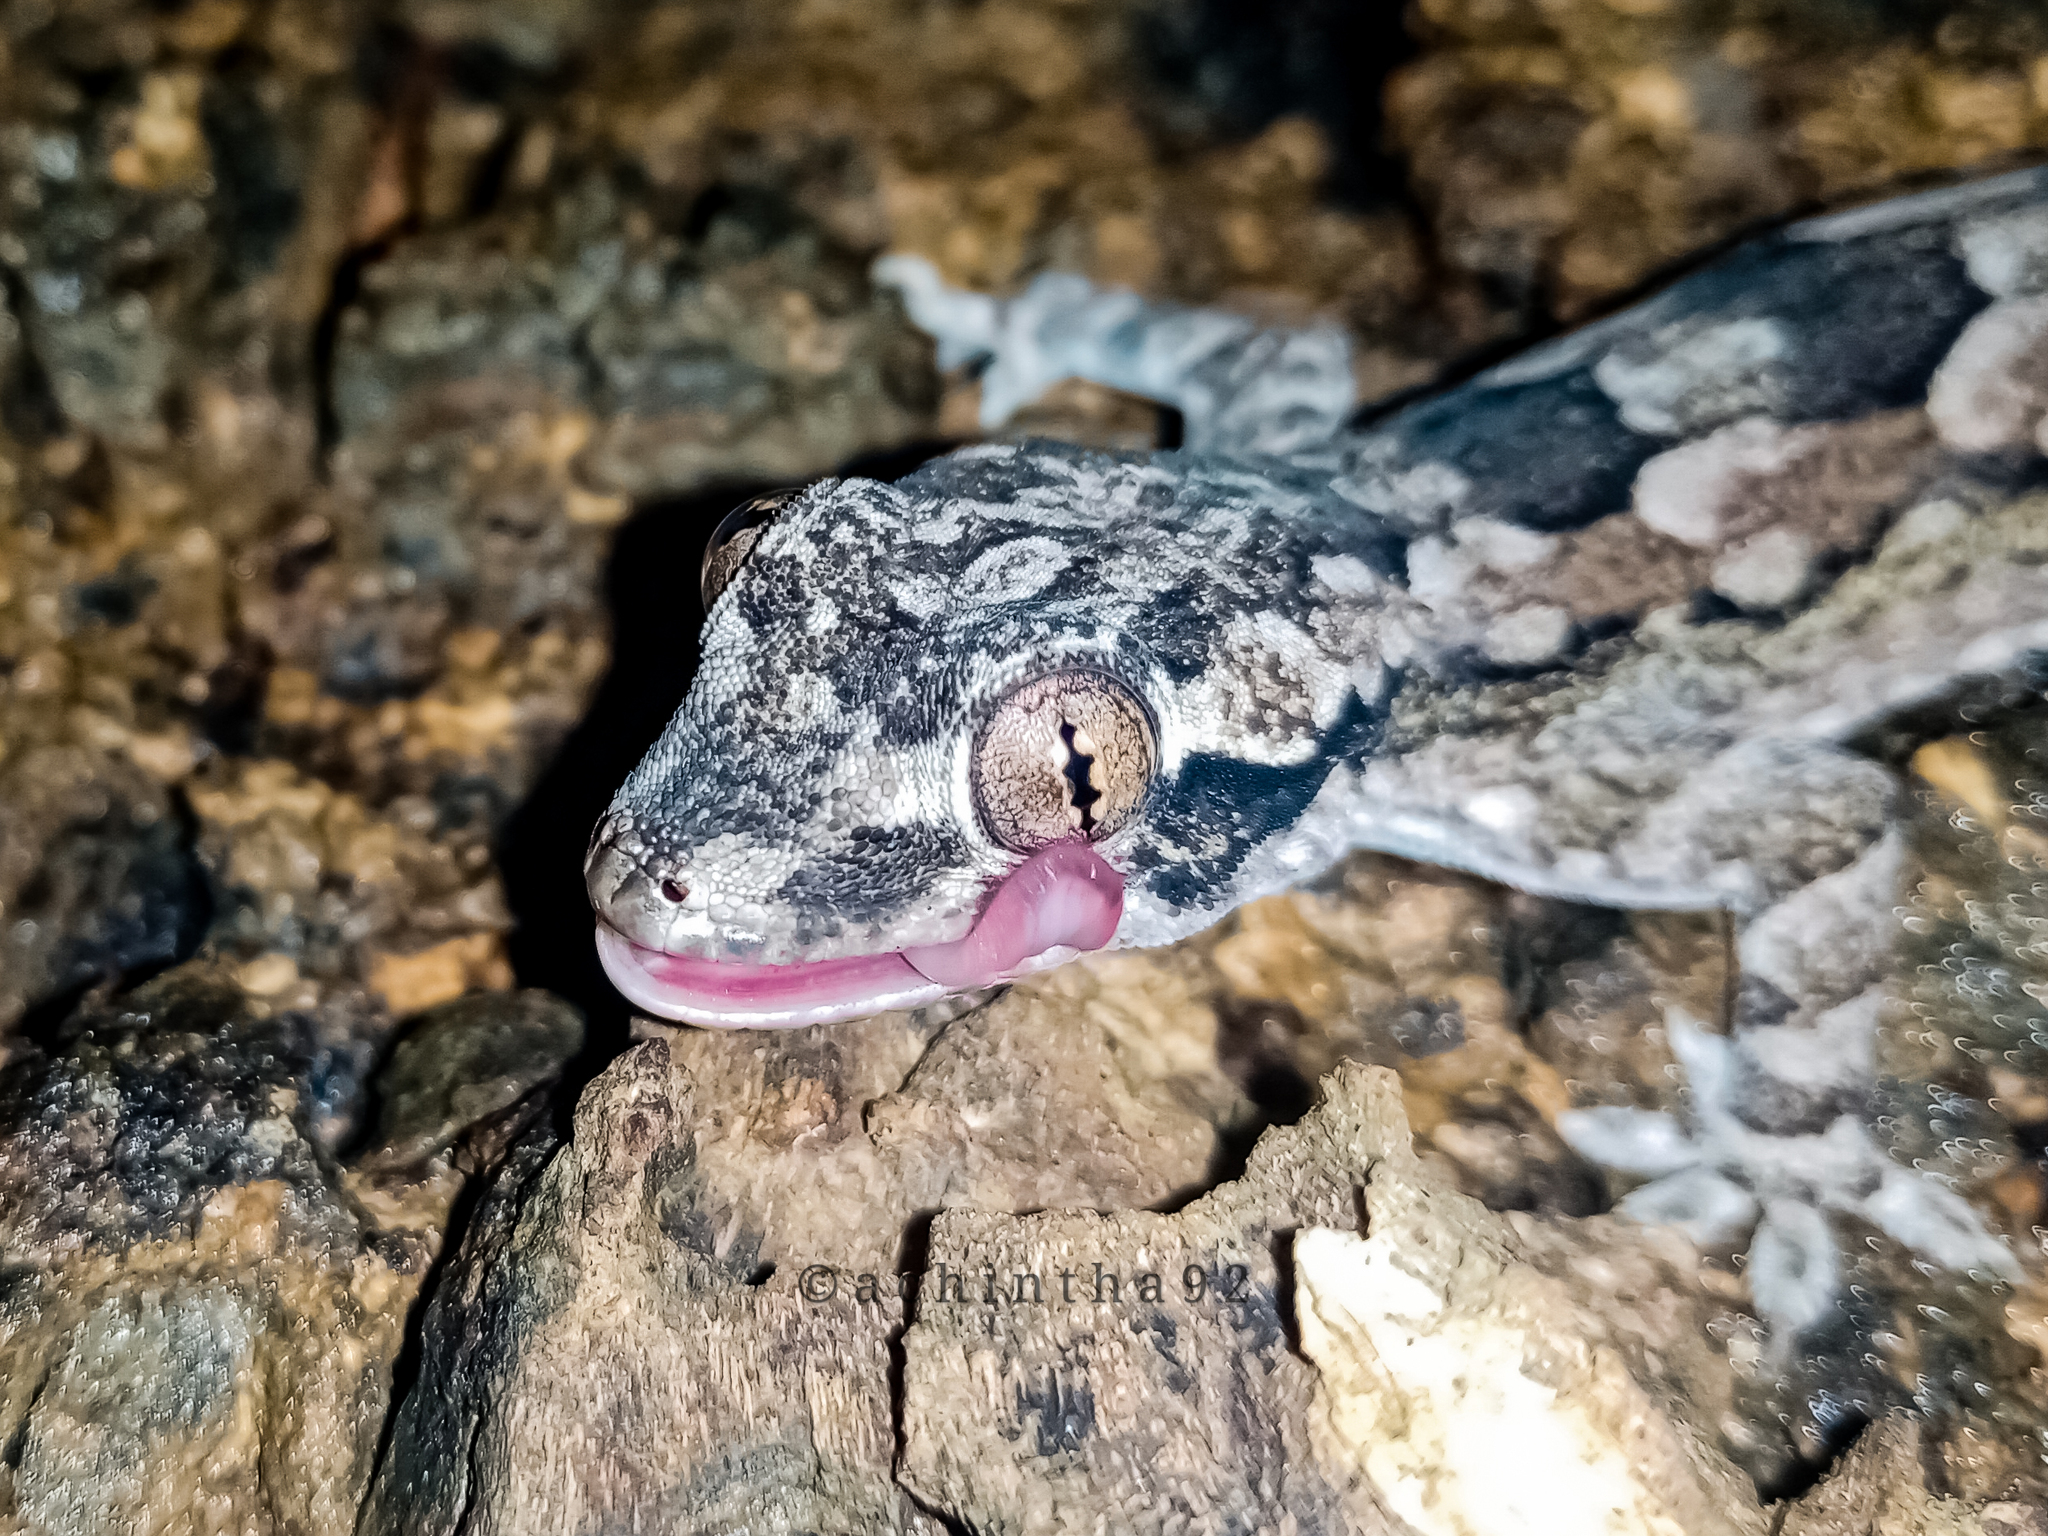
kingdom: Animalia
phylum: Chordata
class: Squamata
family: Gekkonidae
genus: Hemidactylus
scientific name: Hemidactylus leschenaultii
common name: Leschenault's leaf-toed gecko
